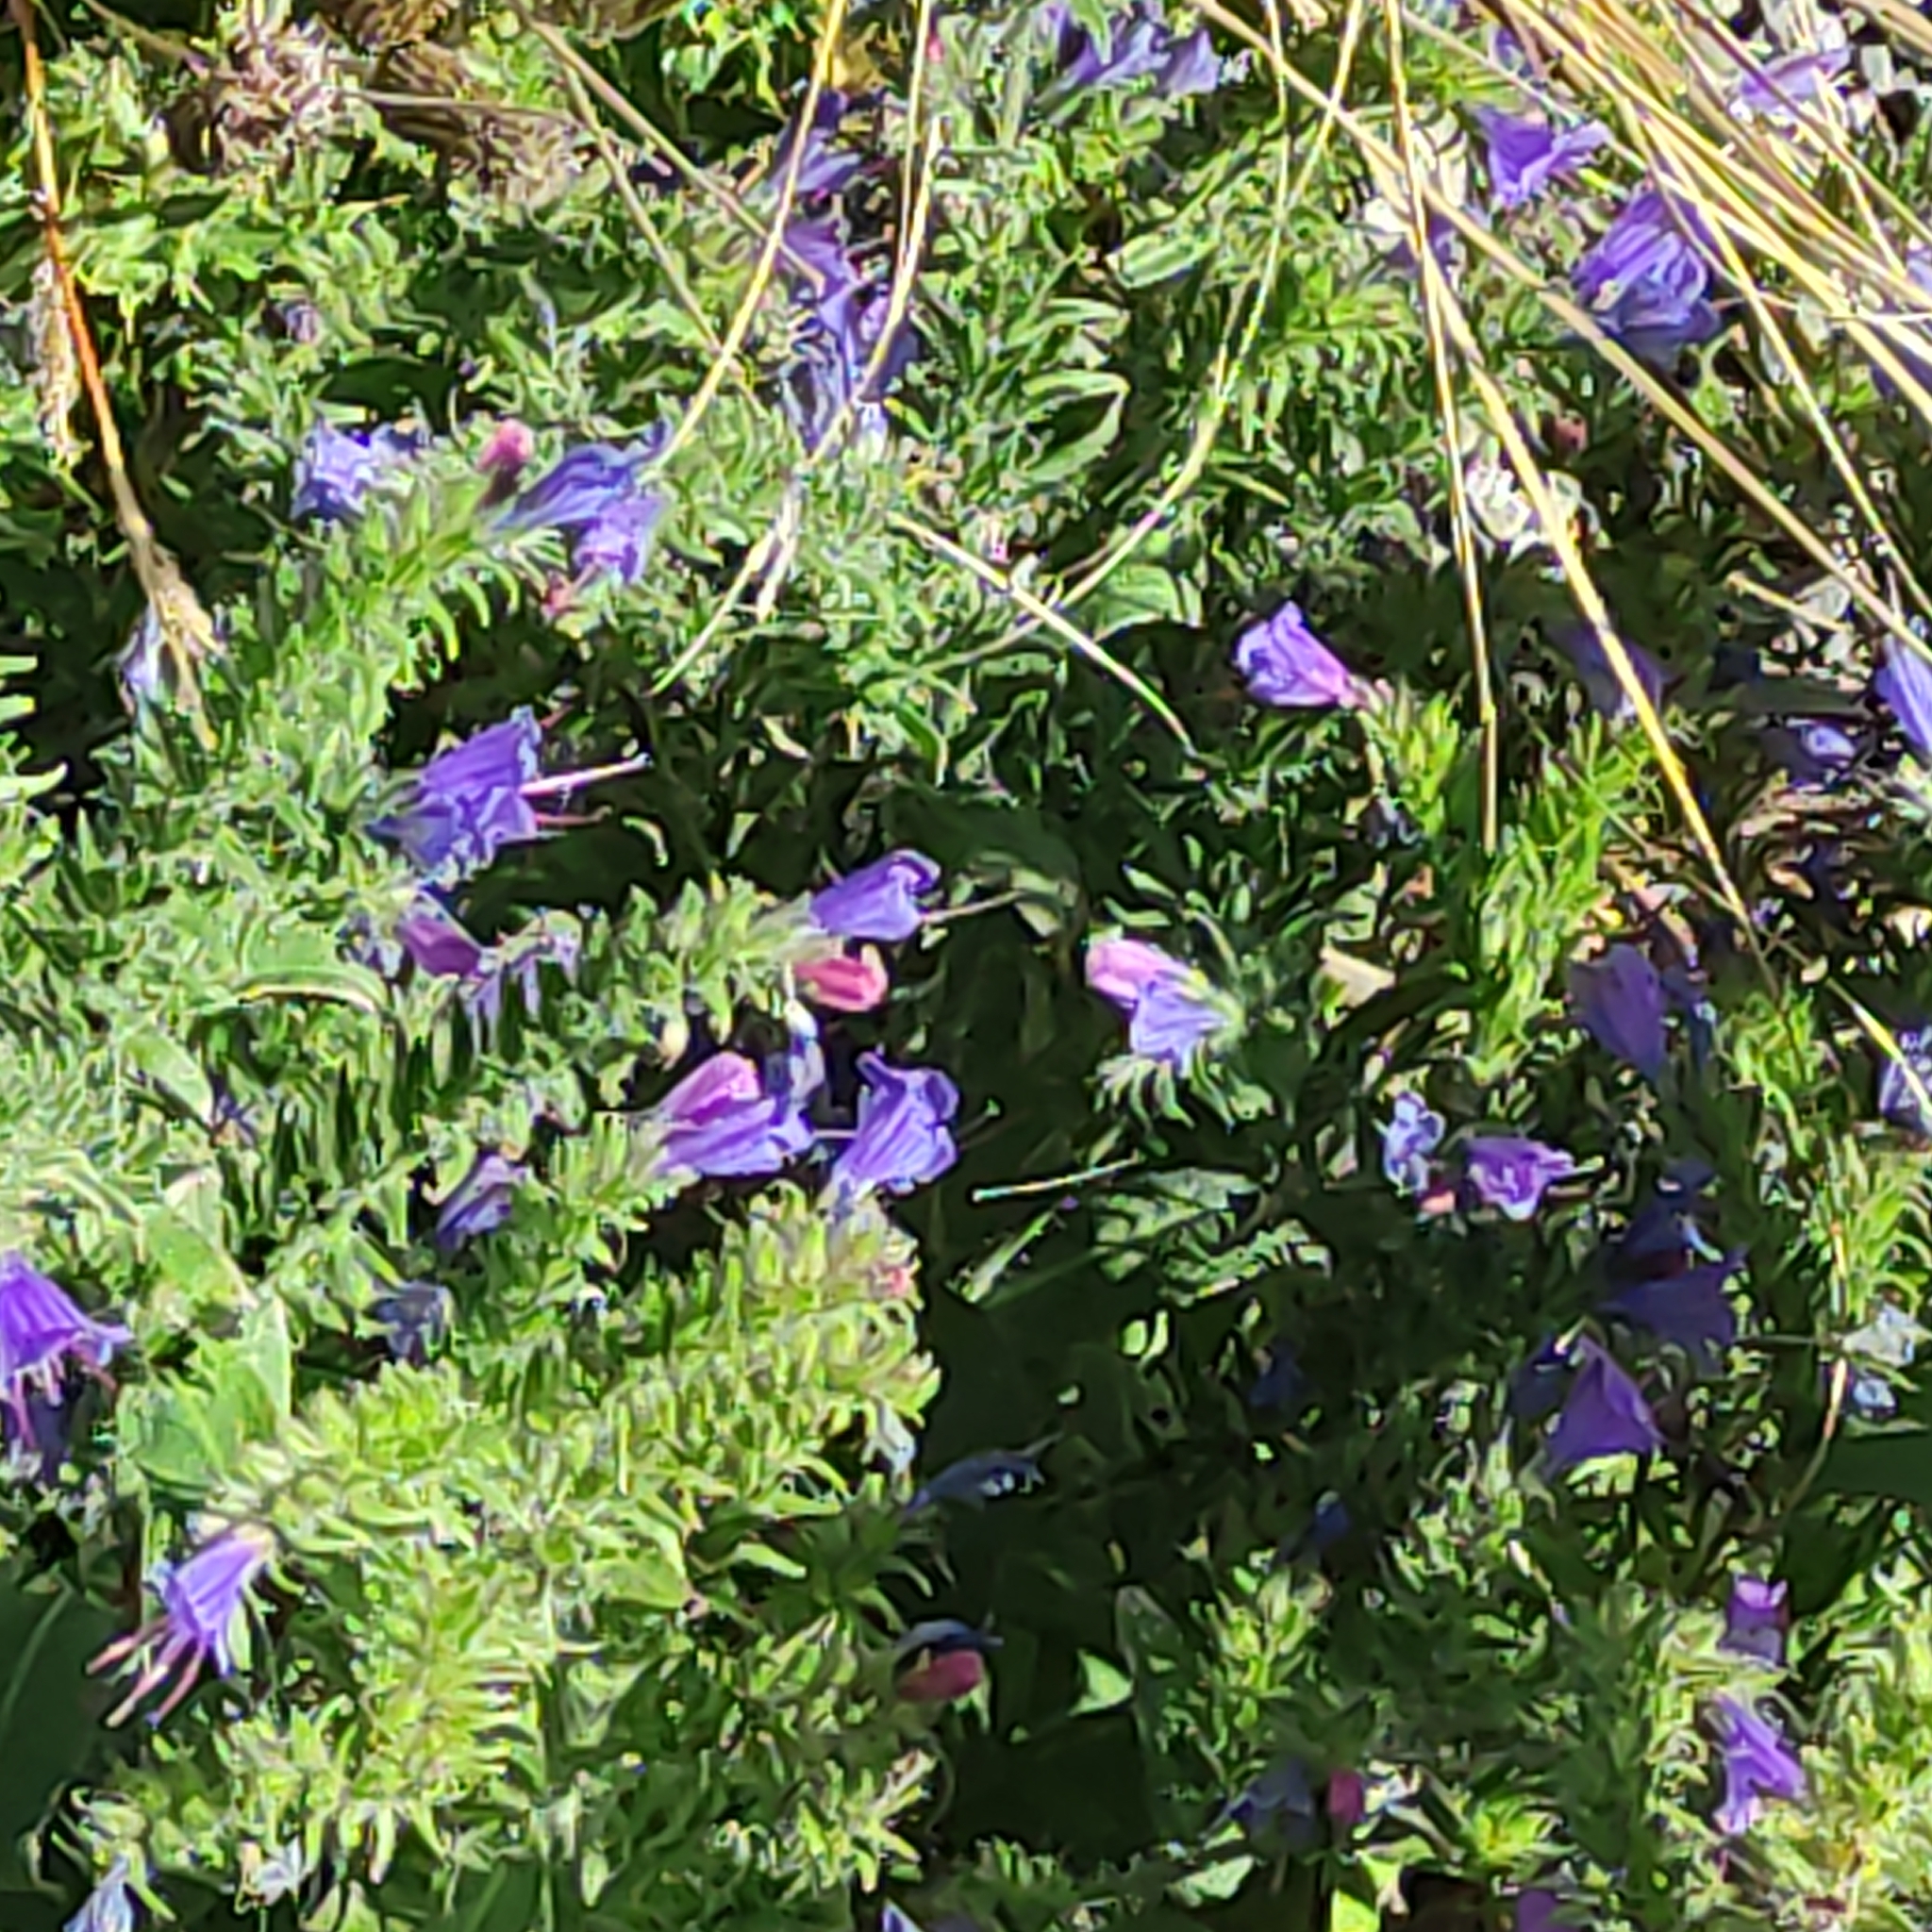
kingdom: Plantae
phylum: Tracheophyta
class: Magnoliopsida
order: Boraginales
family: Boraginaceae
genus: Echium
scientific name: Echium vulgare
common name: Common viper's bugloss
